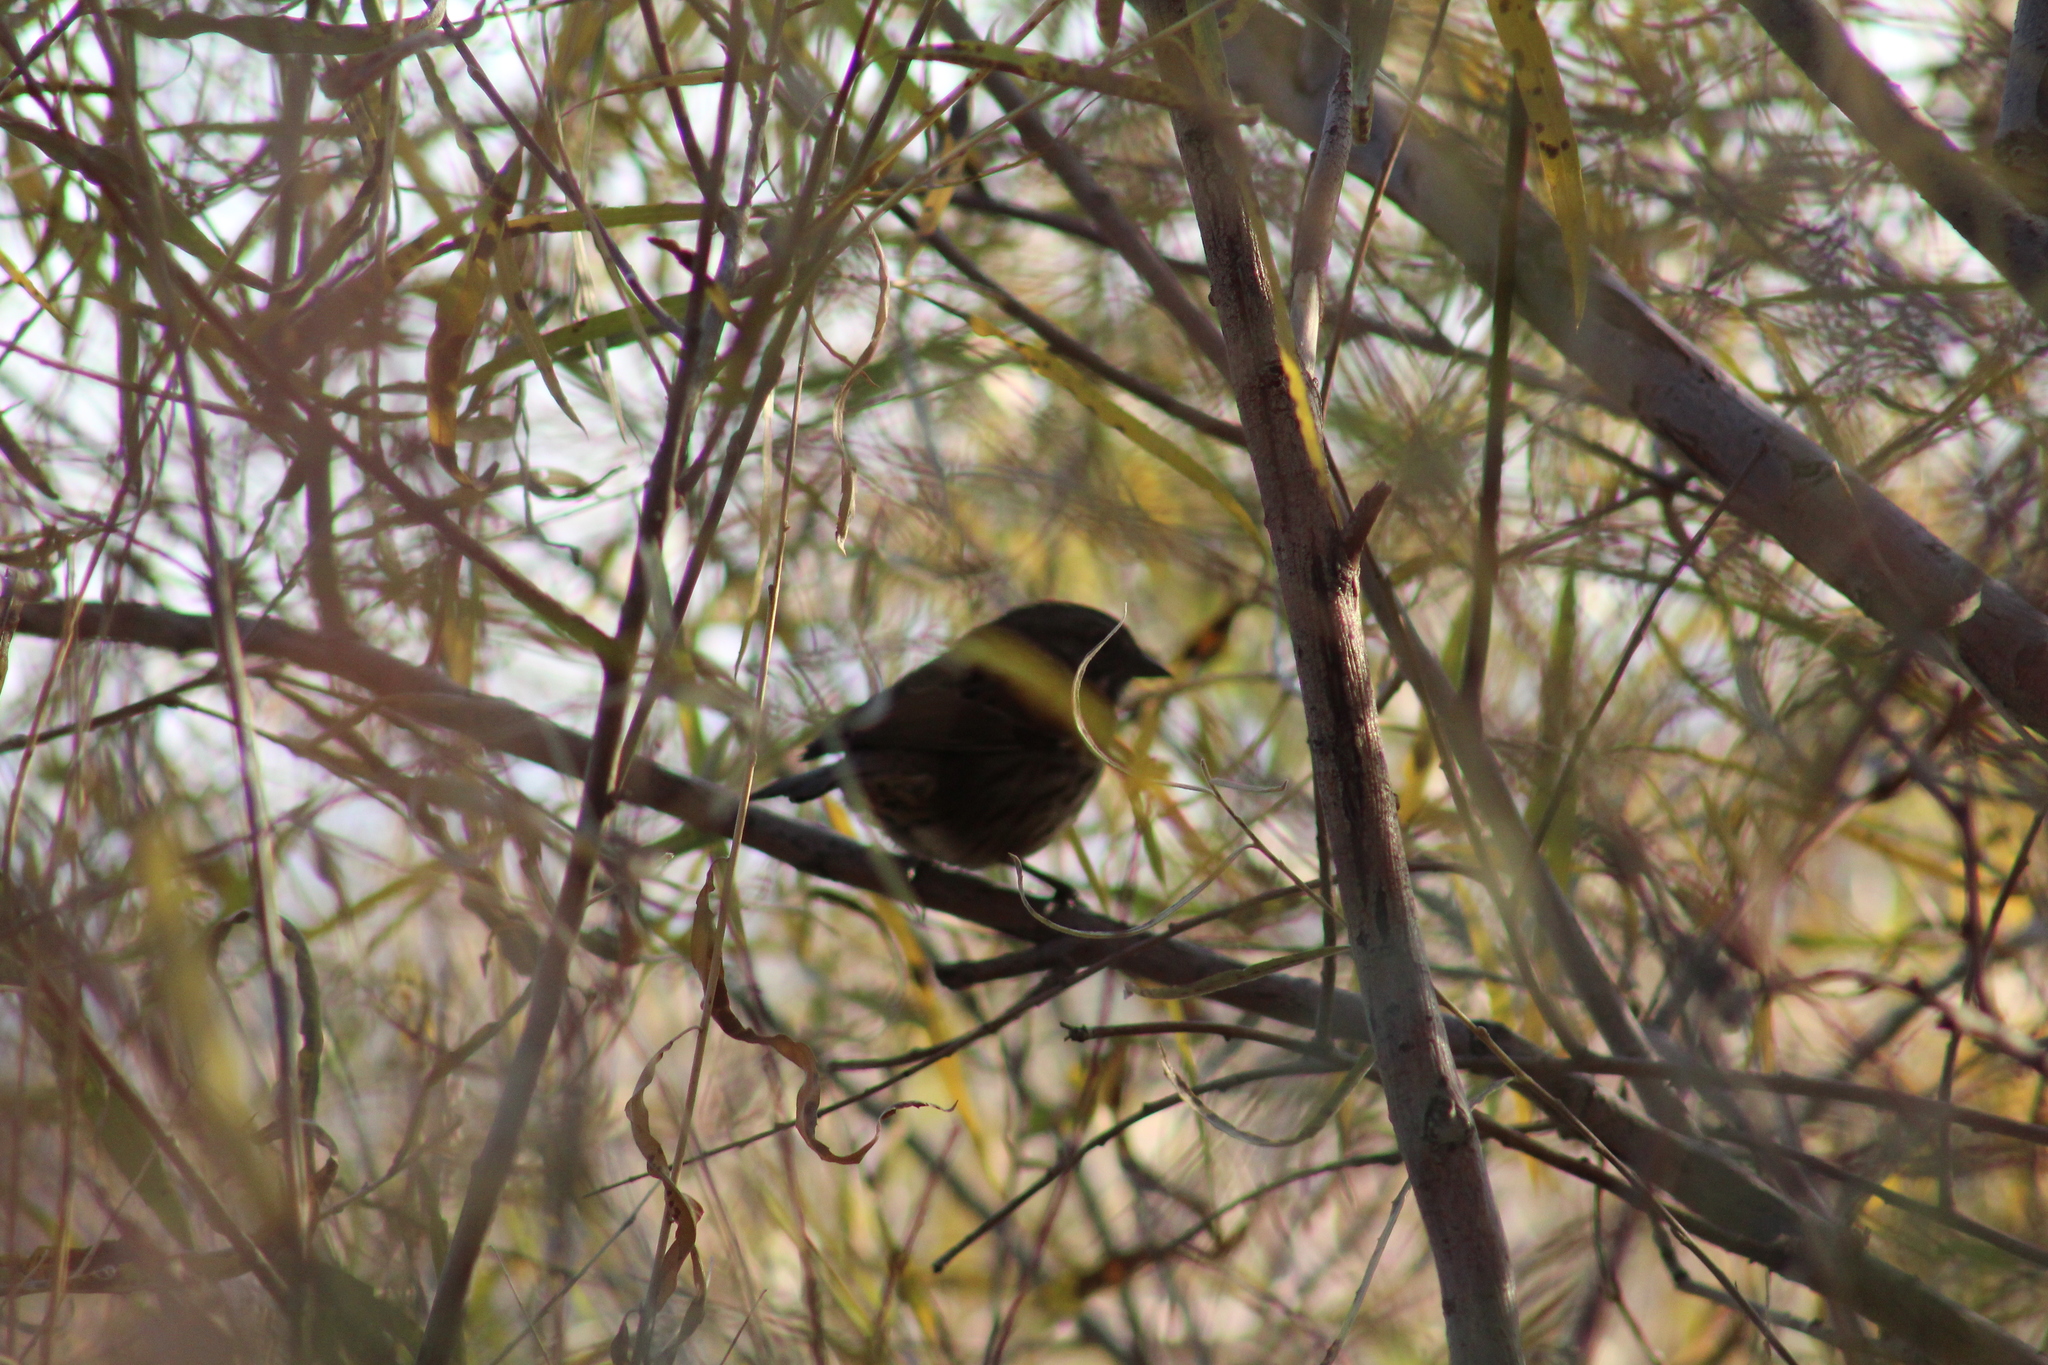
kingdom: Animalia
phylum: Chordata
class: Aves
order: Passeriformes
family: Passerellidae
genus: Melospiza
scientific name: Melospiza melodia
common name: Song sparrow
